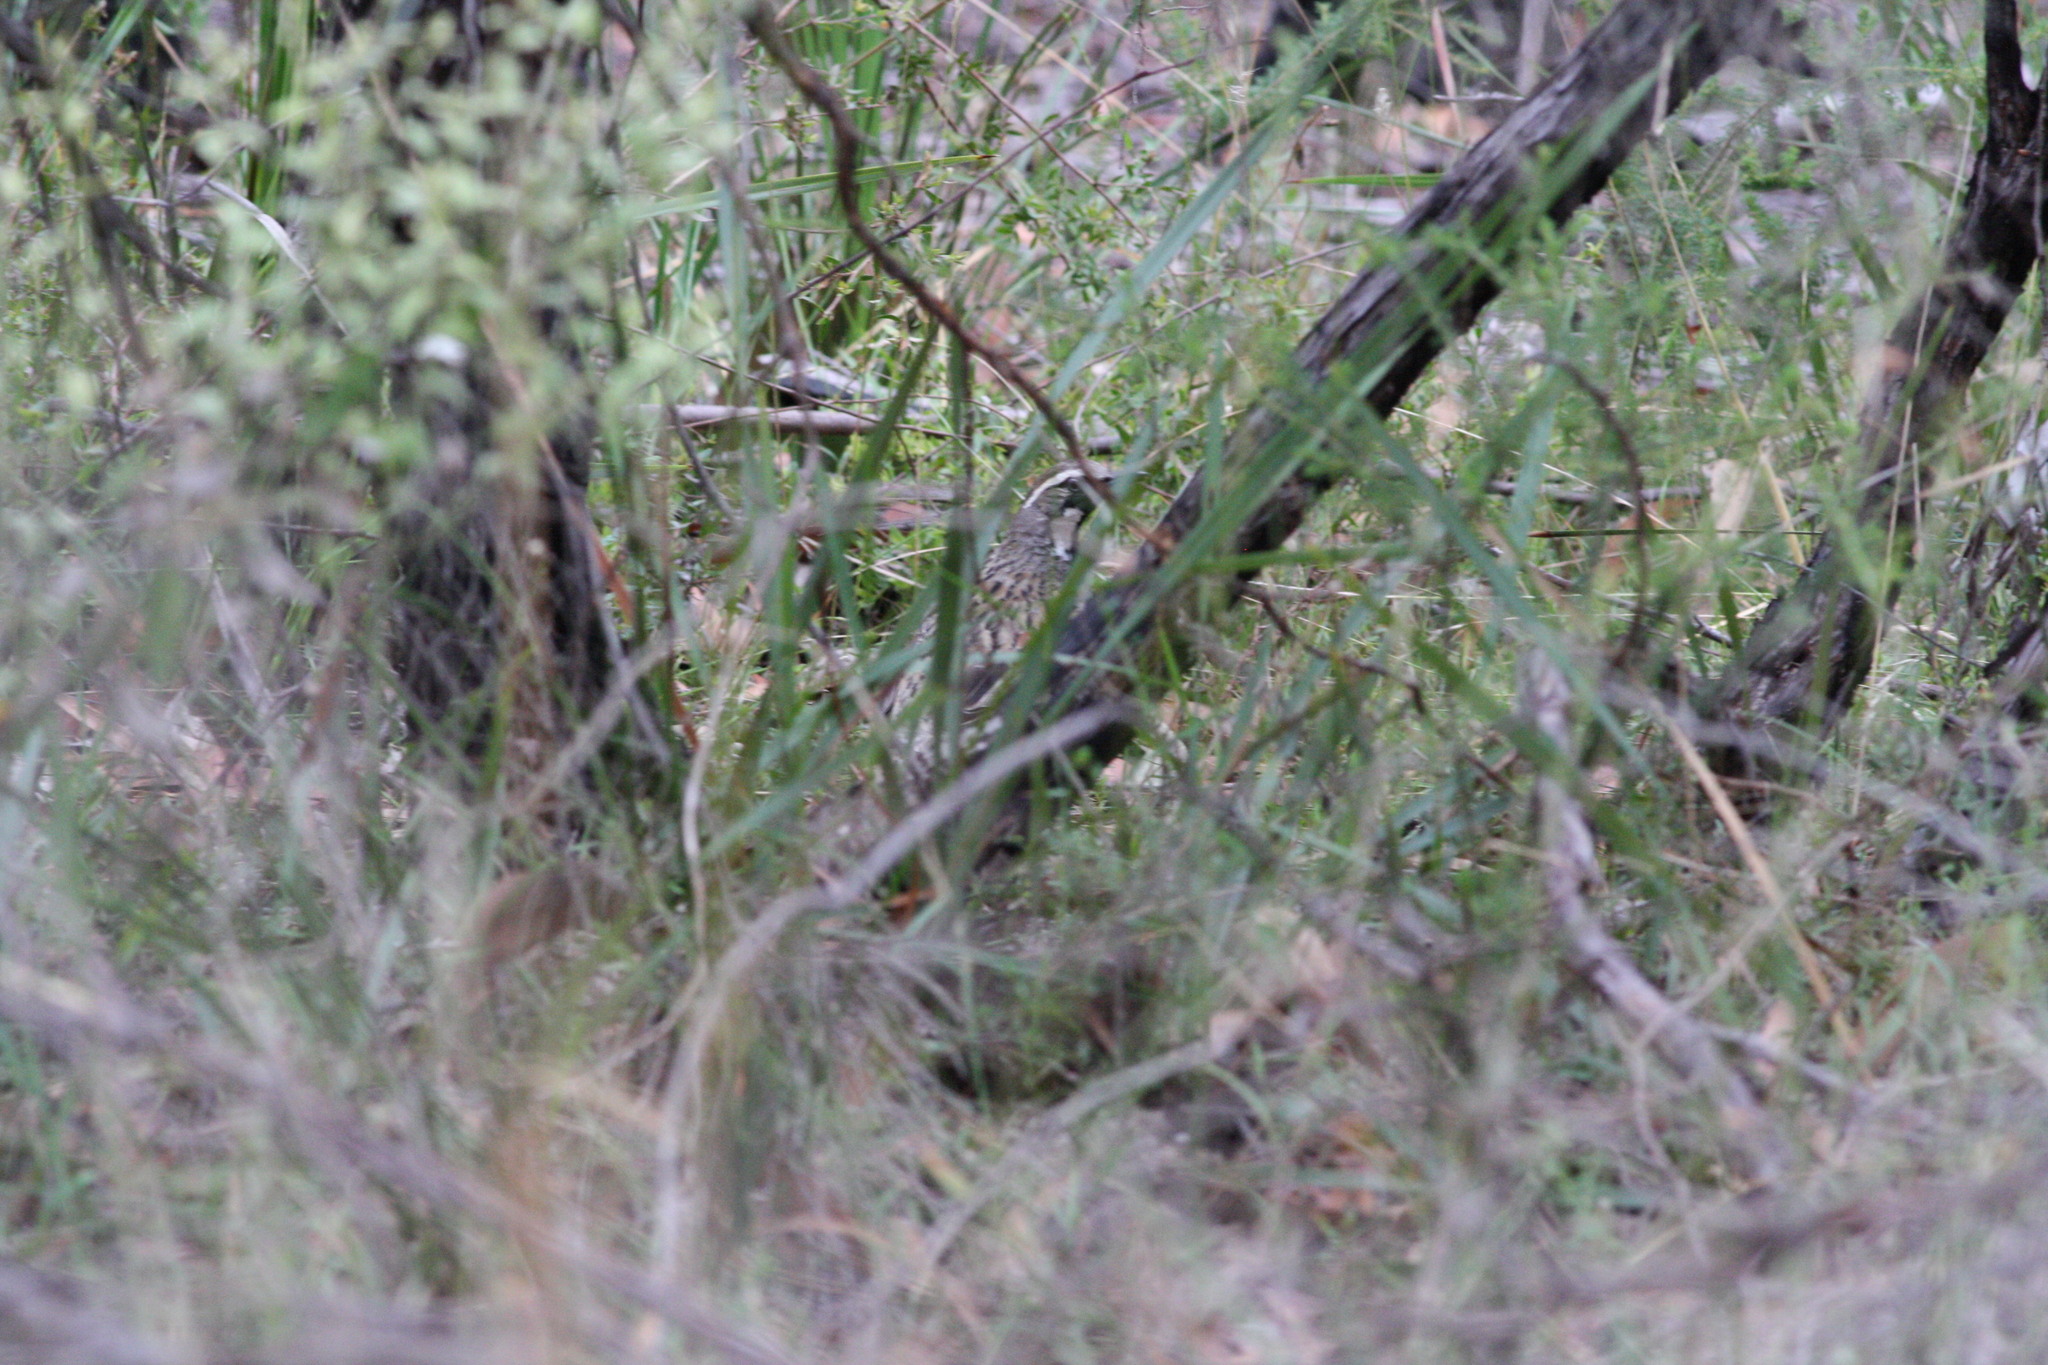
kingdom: Animalia
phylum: Chordata
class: Aves
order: Passeriformes
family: Psophodidae
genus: Cinclosoma
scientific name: Cinclosoma punctatum
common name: Spotted quail-thrush
